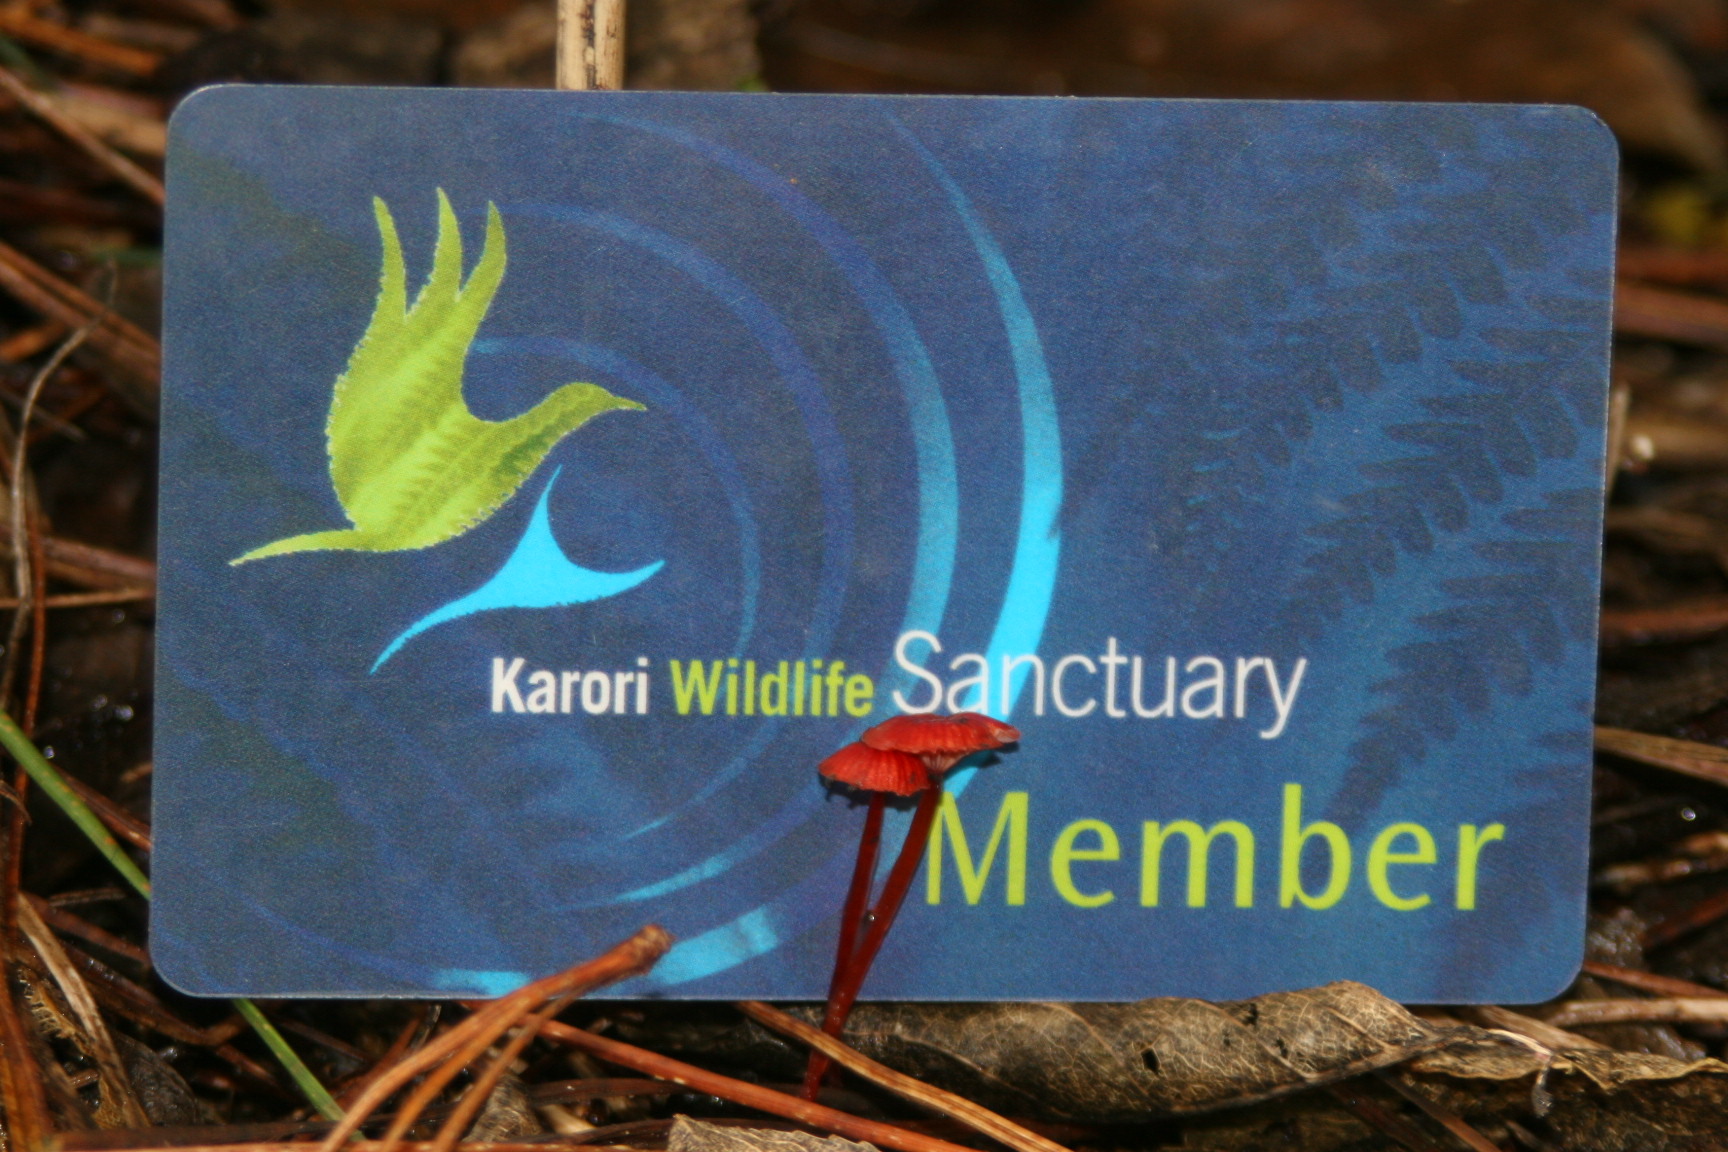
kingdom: Fungi
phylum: Basidiomycota
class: Agaricomycetes
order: Agaricales
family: Mycenaceae
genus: Cruentomycena
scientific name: Cruentomycena viscidocruenta
